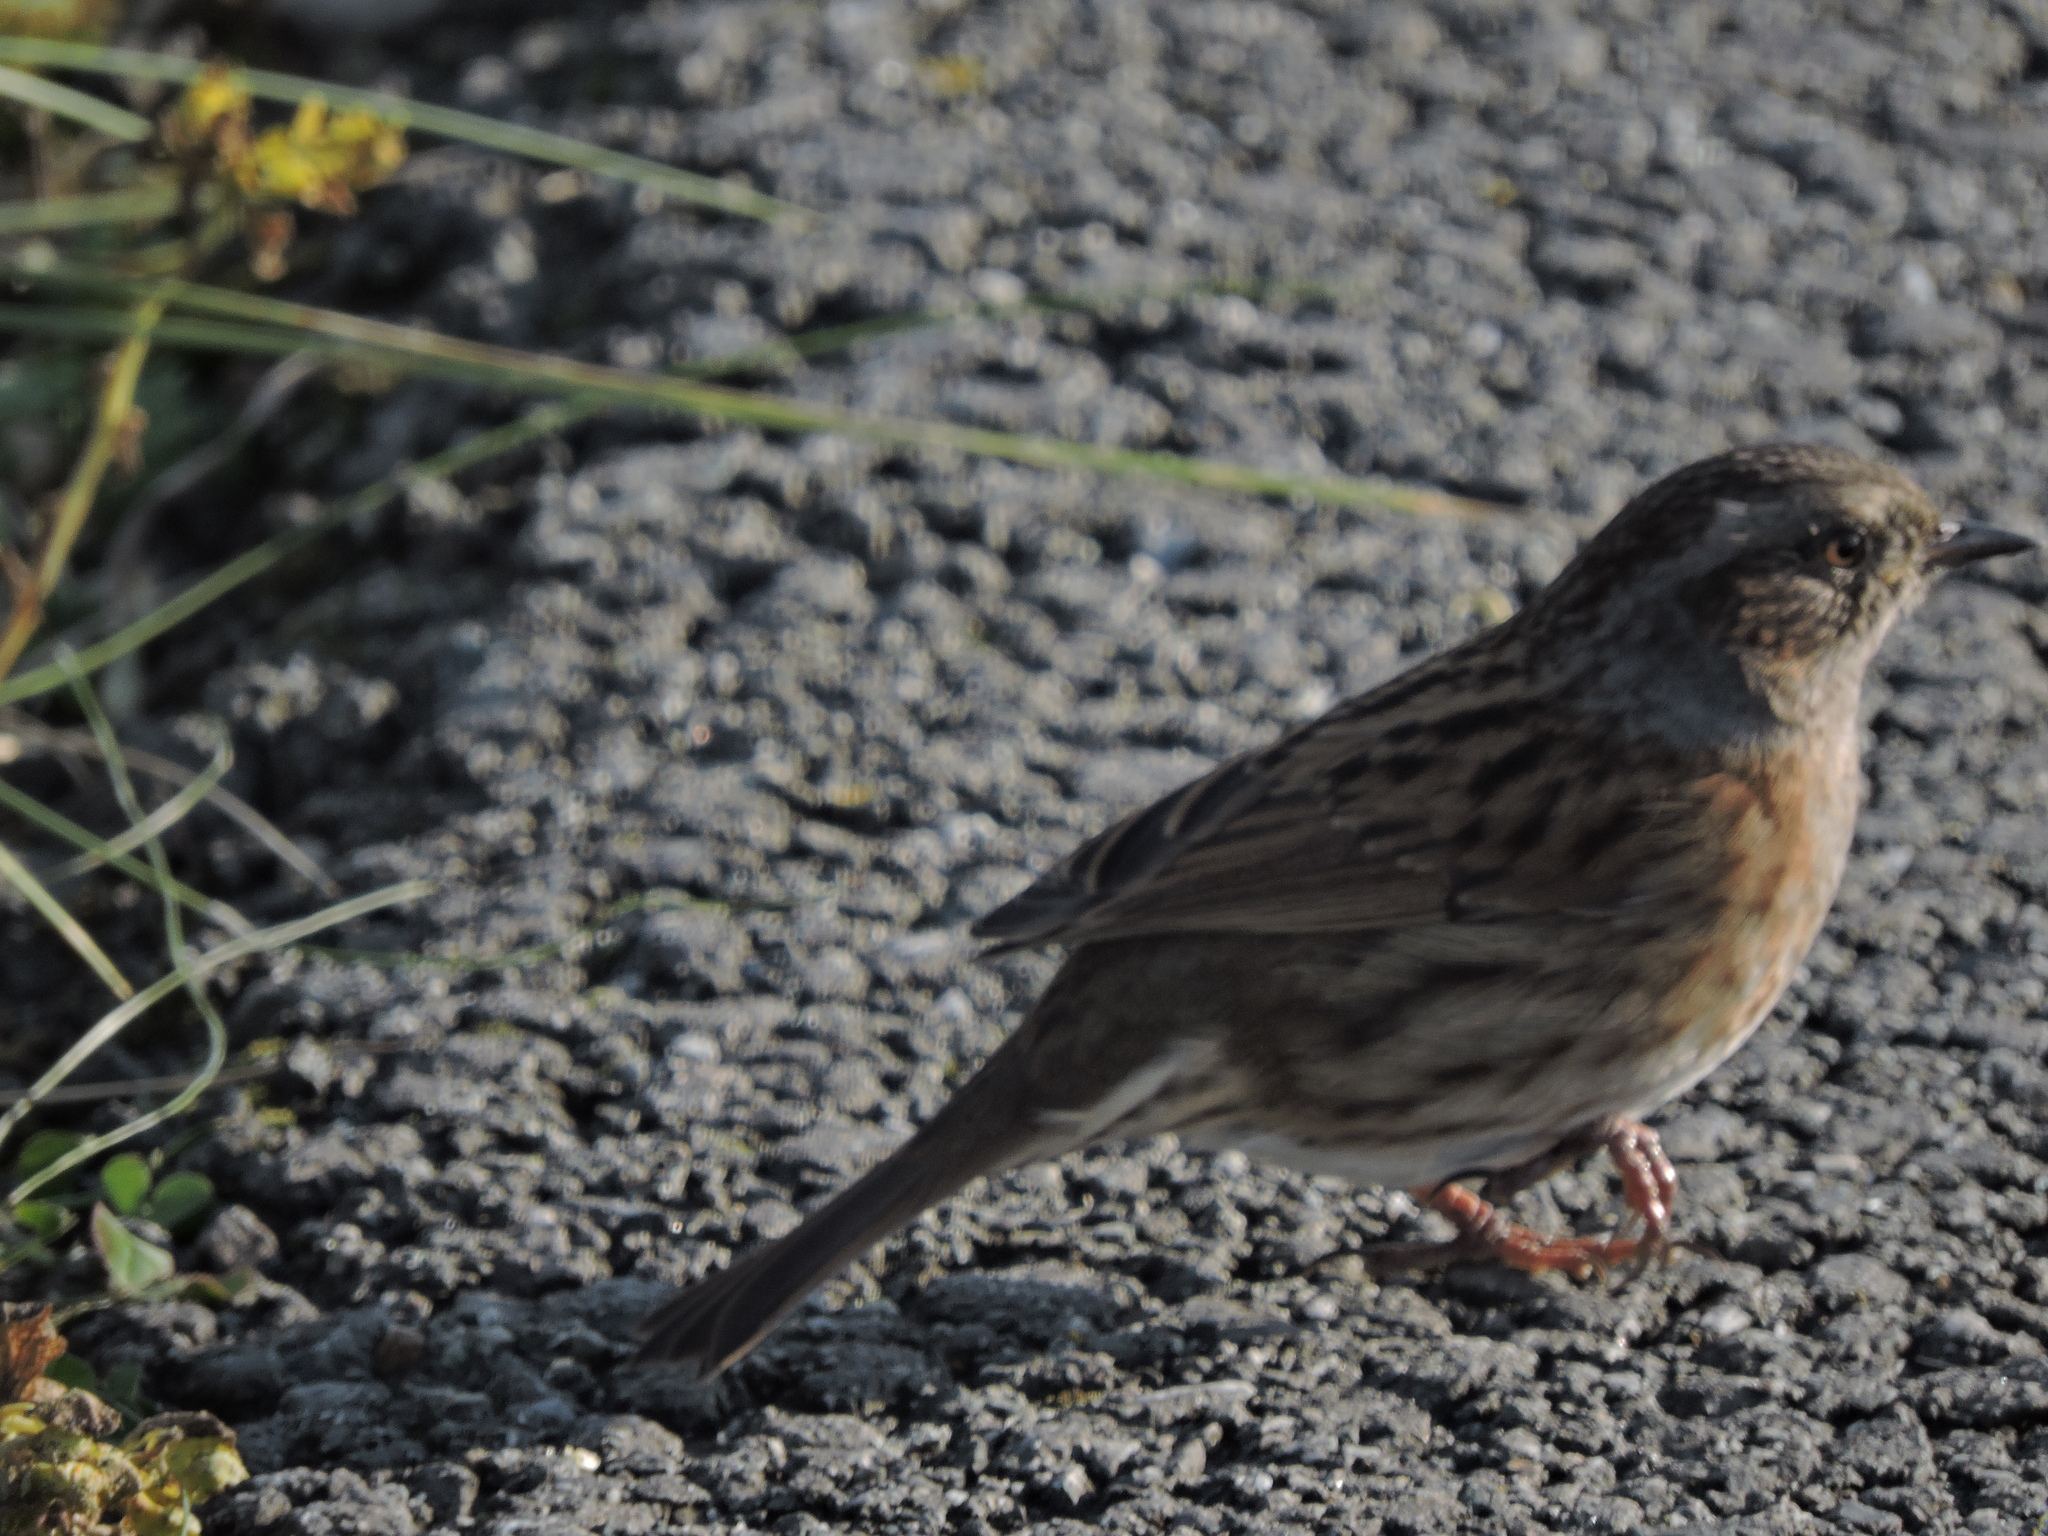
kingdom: Animalia
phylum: Chordata
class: Aves
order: Passeriformes
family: Prunellidae
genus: Prunella
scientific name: Prunella modularis
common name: Dunnock
